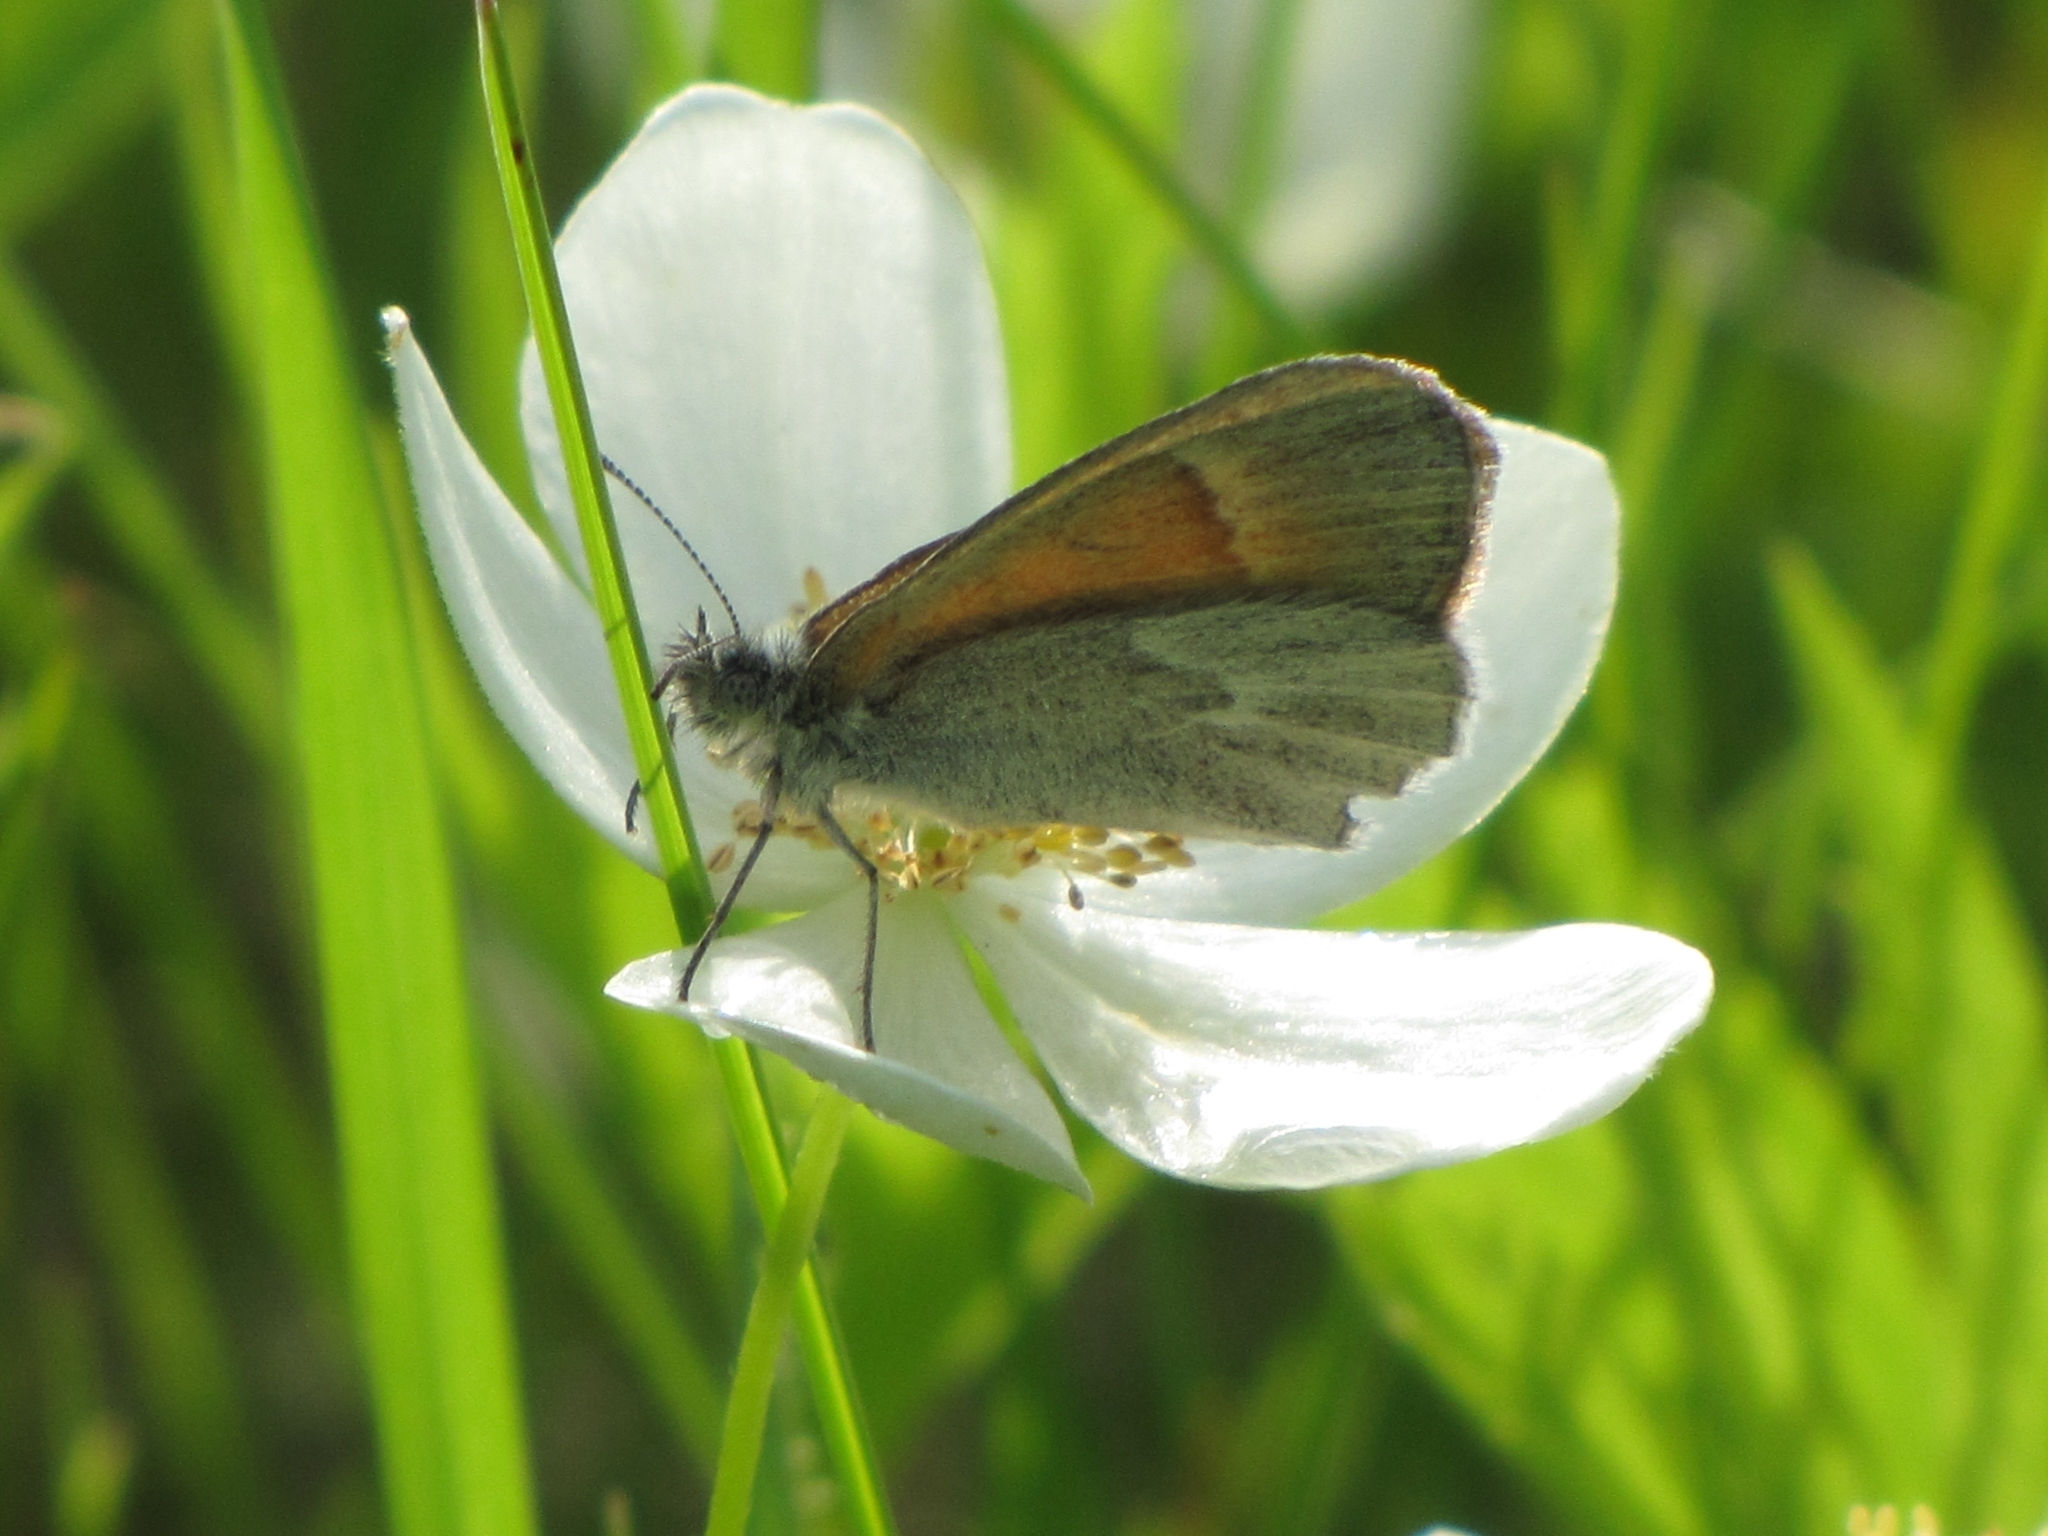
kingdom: Animalia
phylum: Arthropoda
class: Insecta
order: Lepidoptera
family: Nymphalidae
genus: Coenonympha
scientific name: Coenonympha california
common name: Common ringlet
